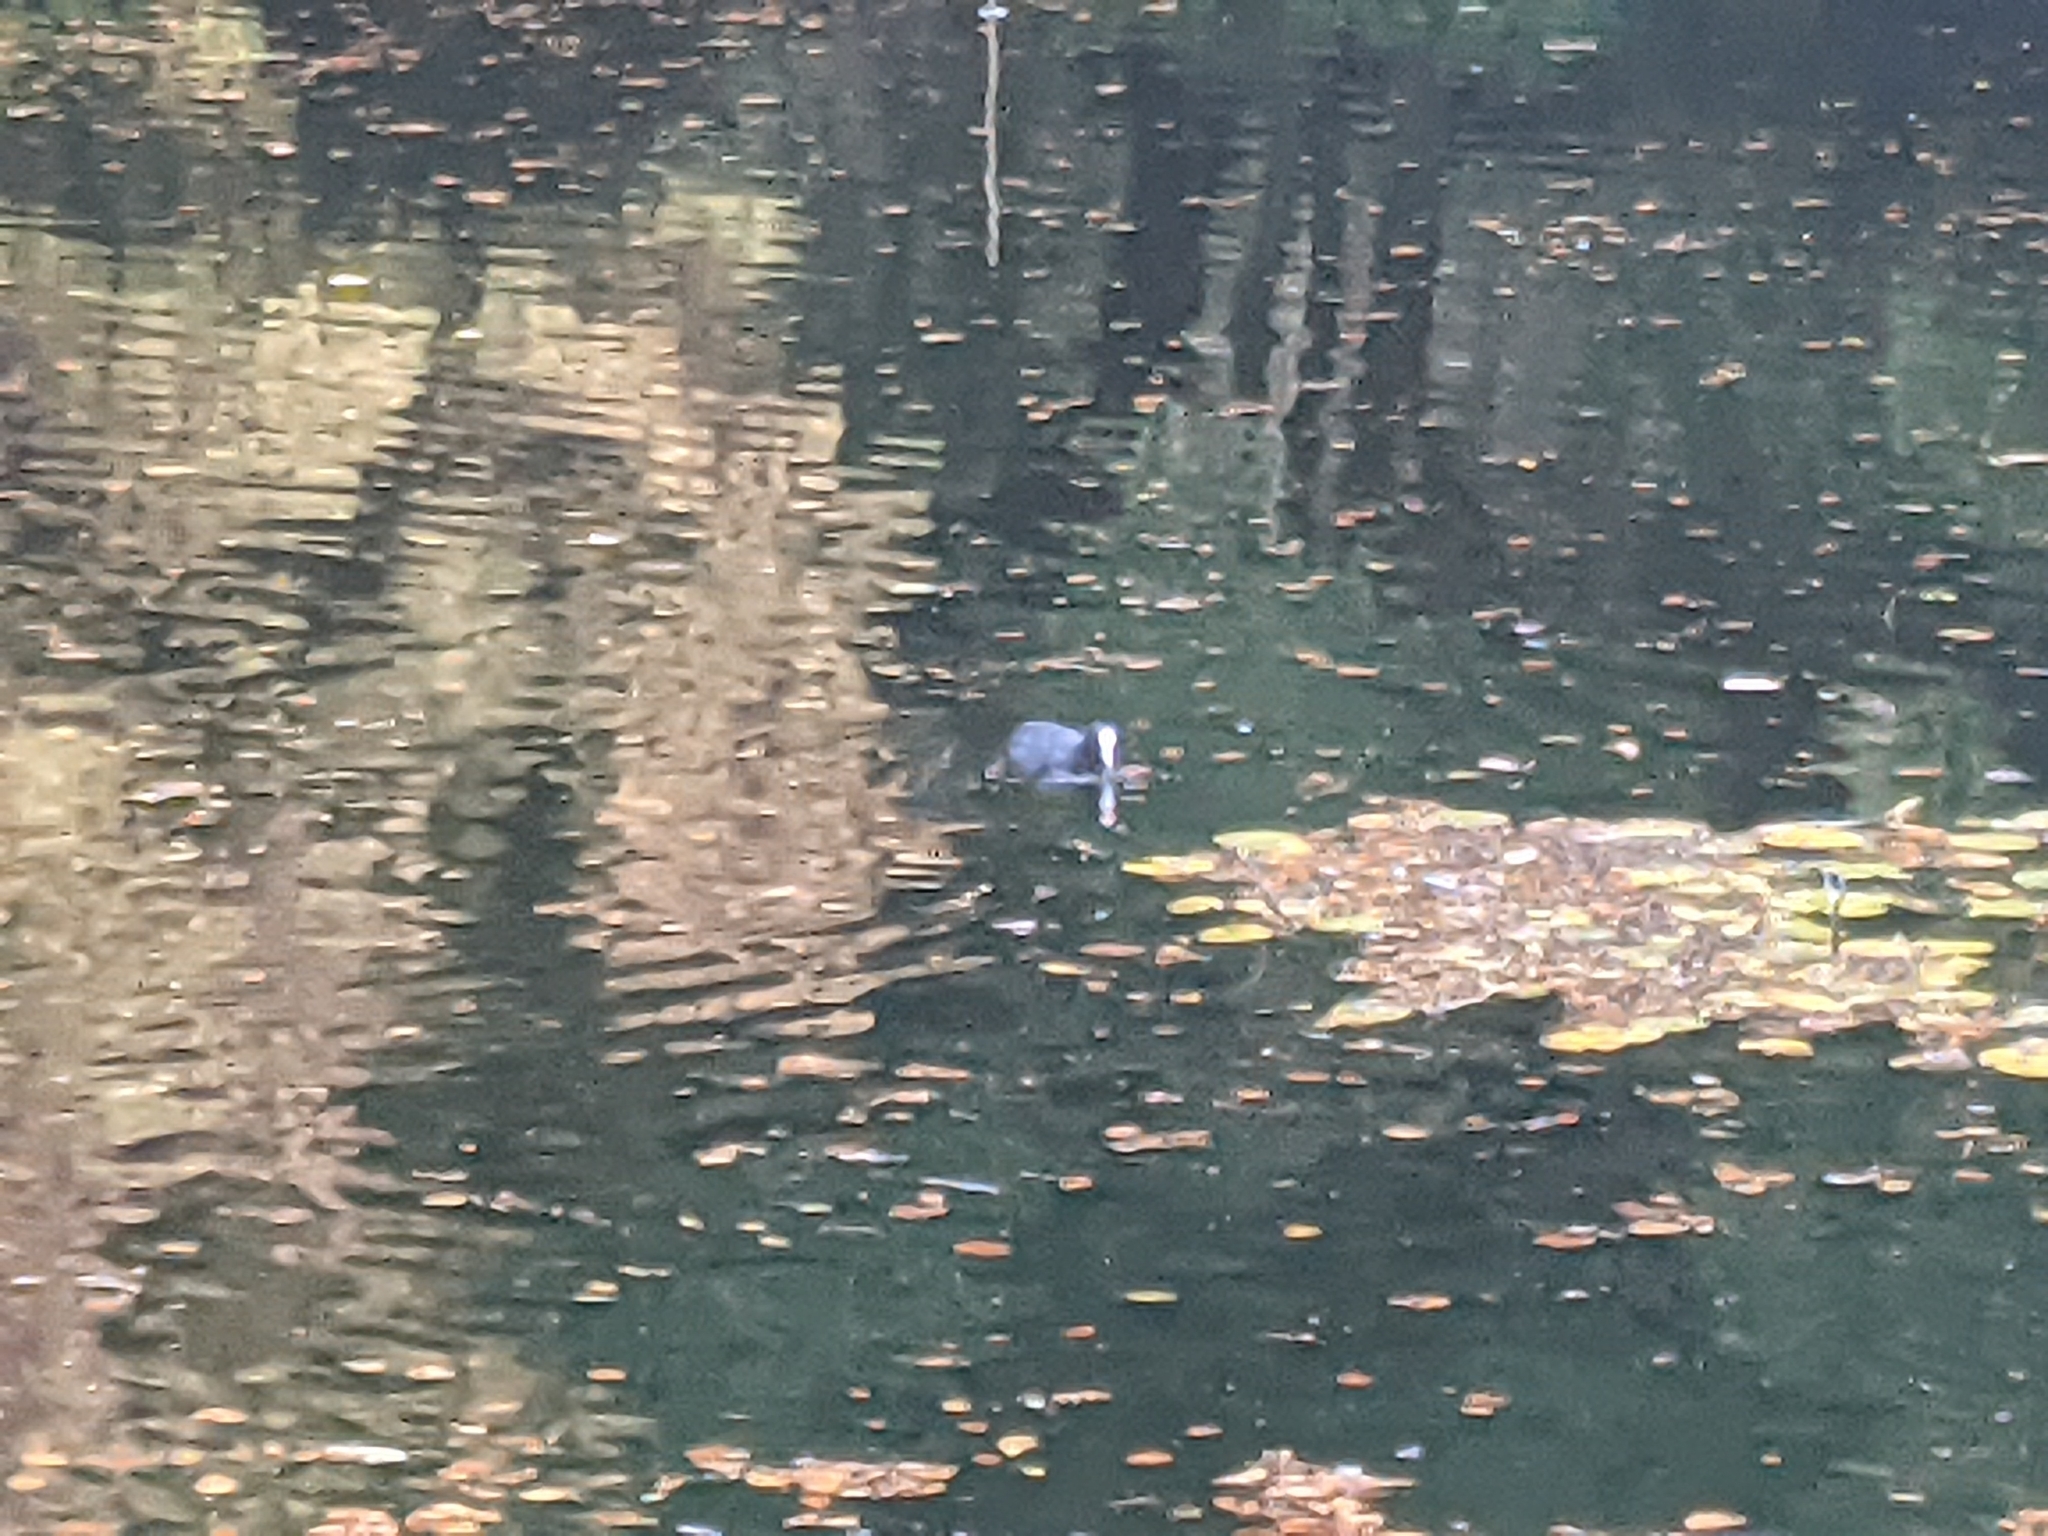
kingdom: Animalia
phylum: Chordata
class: Aves
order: Gruiformes
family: Rallidae
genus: Fulica
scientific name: Fulica atra
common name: Eurasian coot
